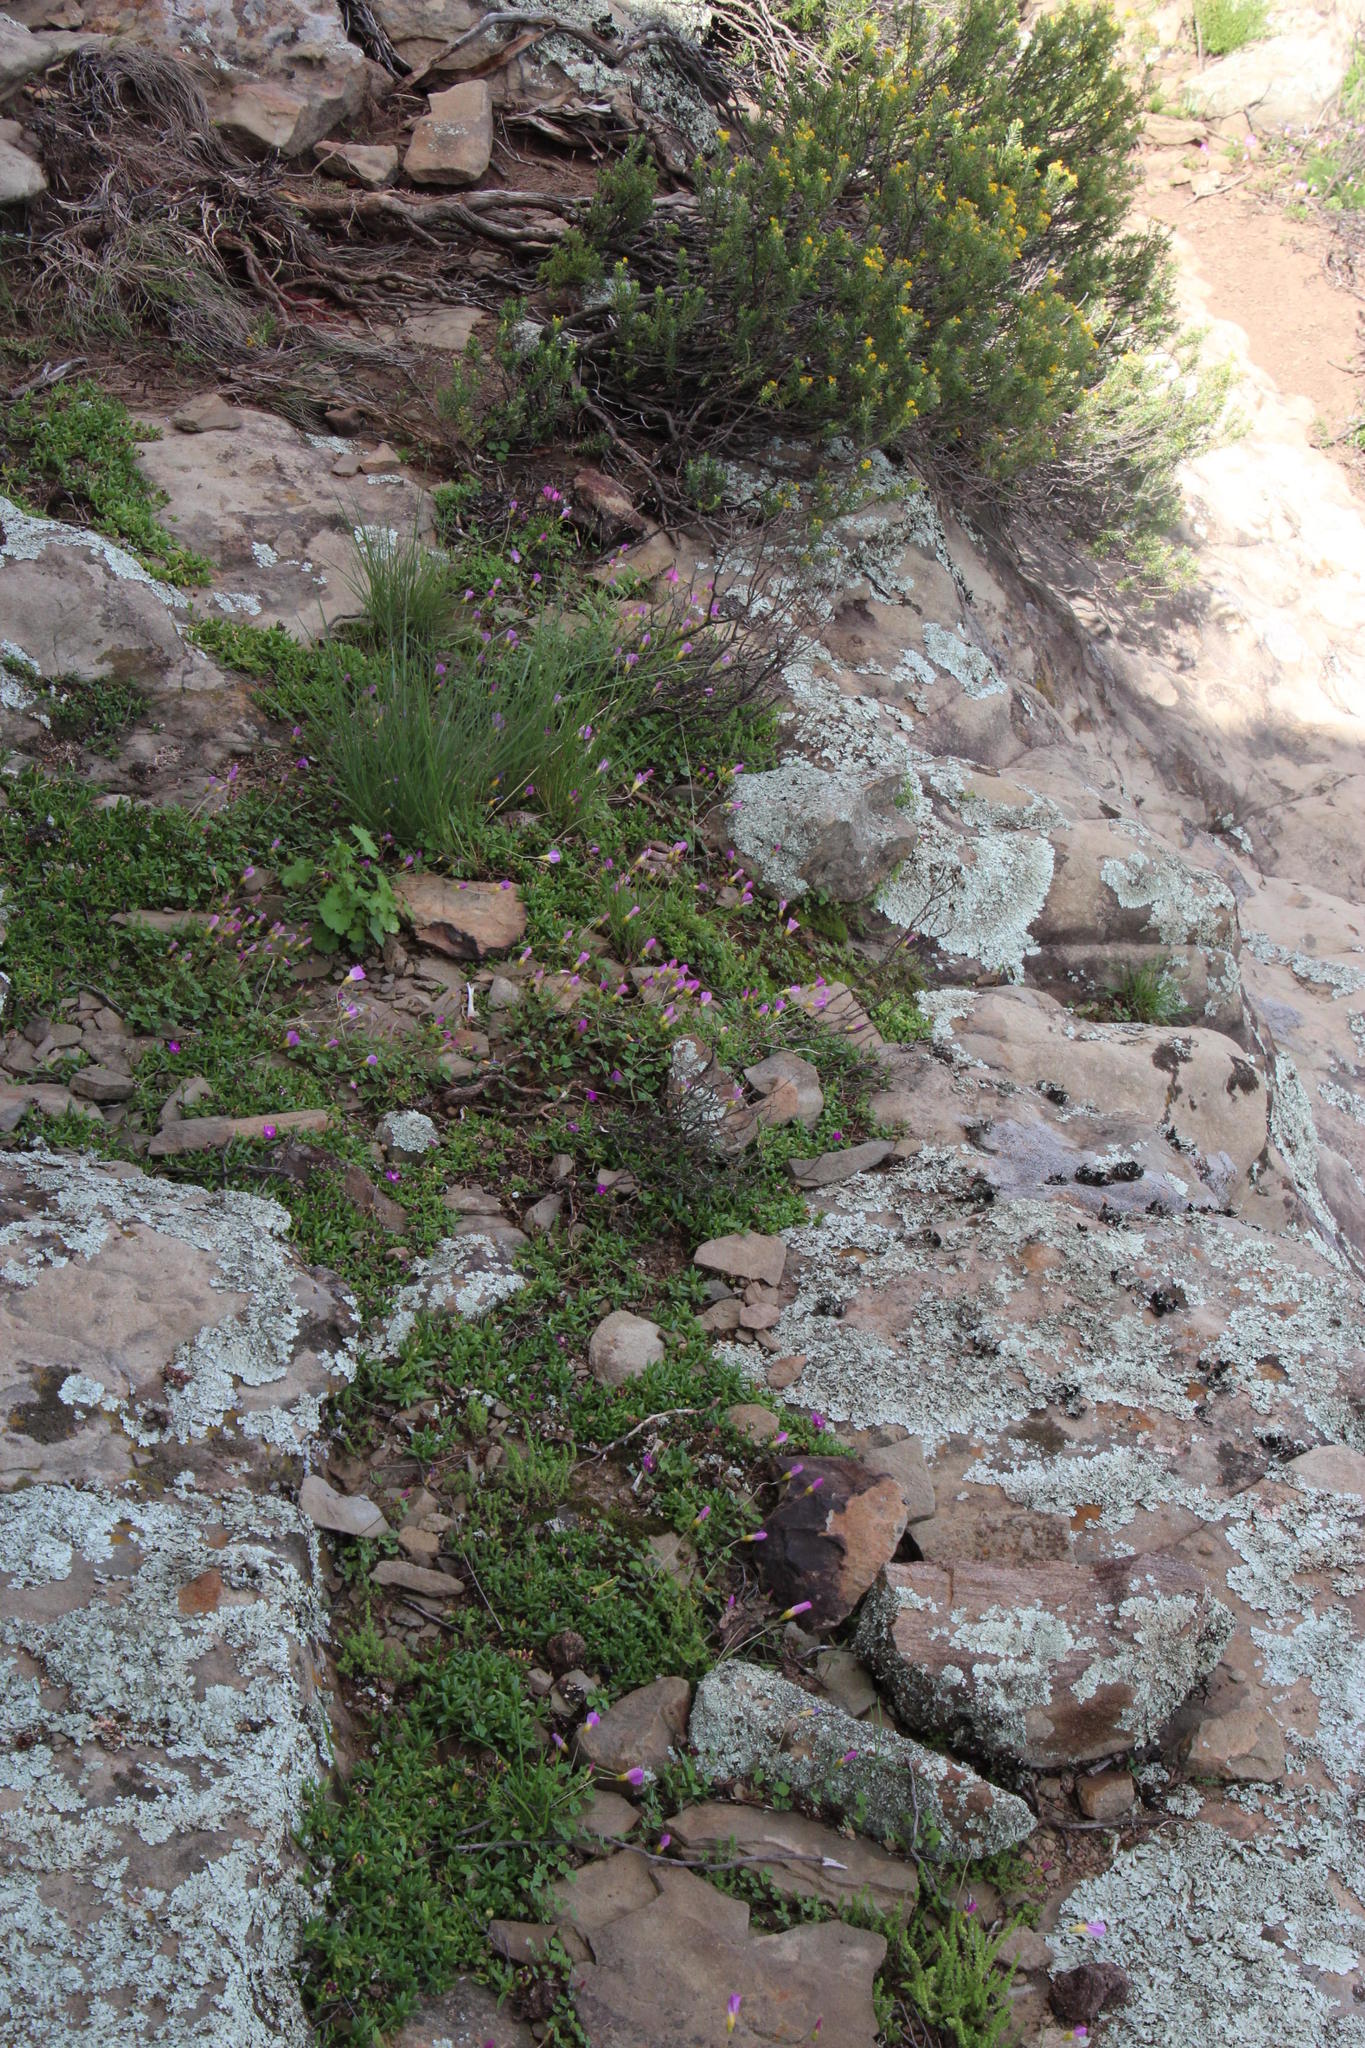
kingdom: Plantae
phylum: Tracheophyta
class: Magnoliopsida
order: Oxalidales
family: Oxalidaceae
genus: Oxalis
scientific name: Oxalis obliquifolia
